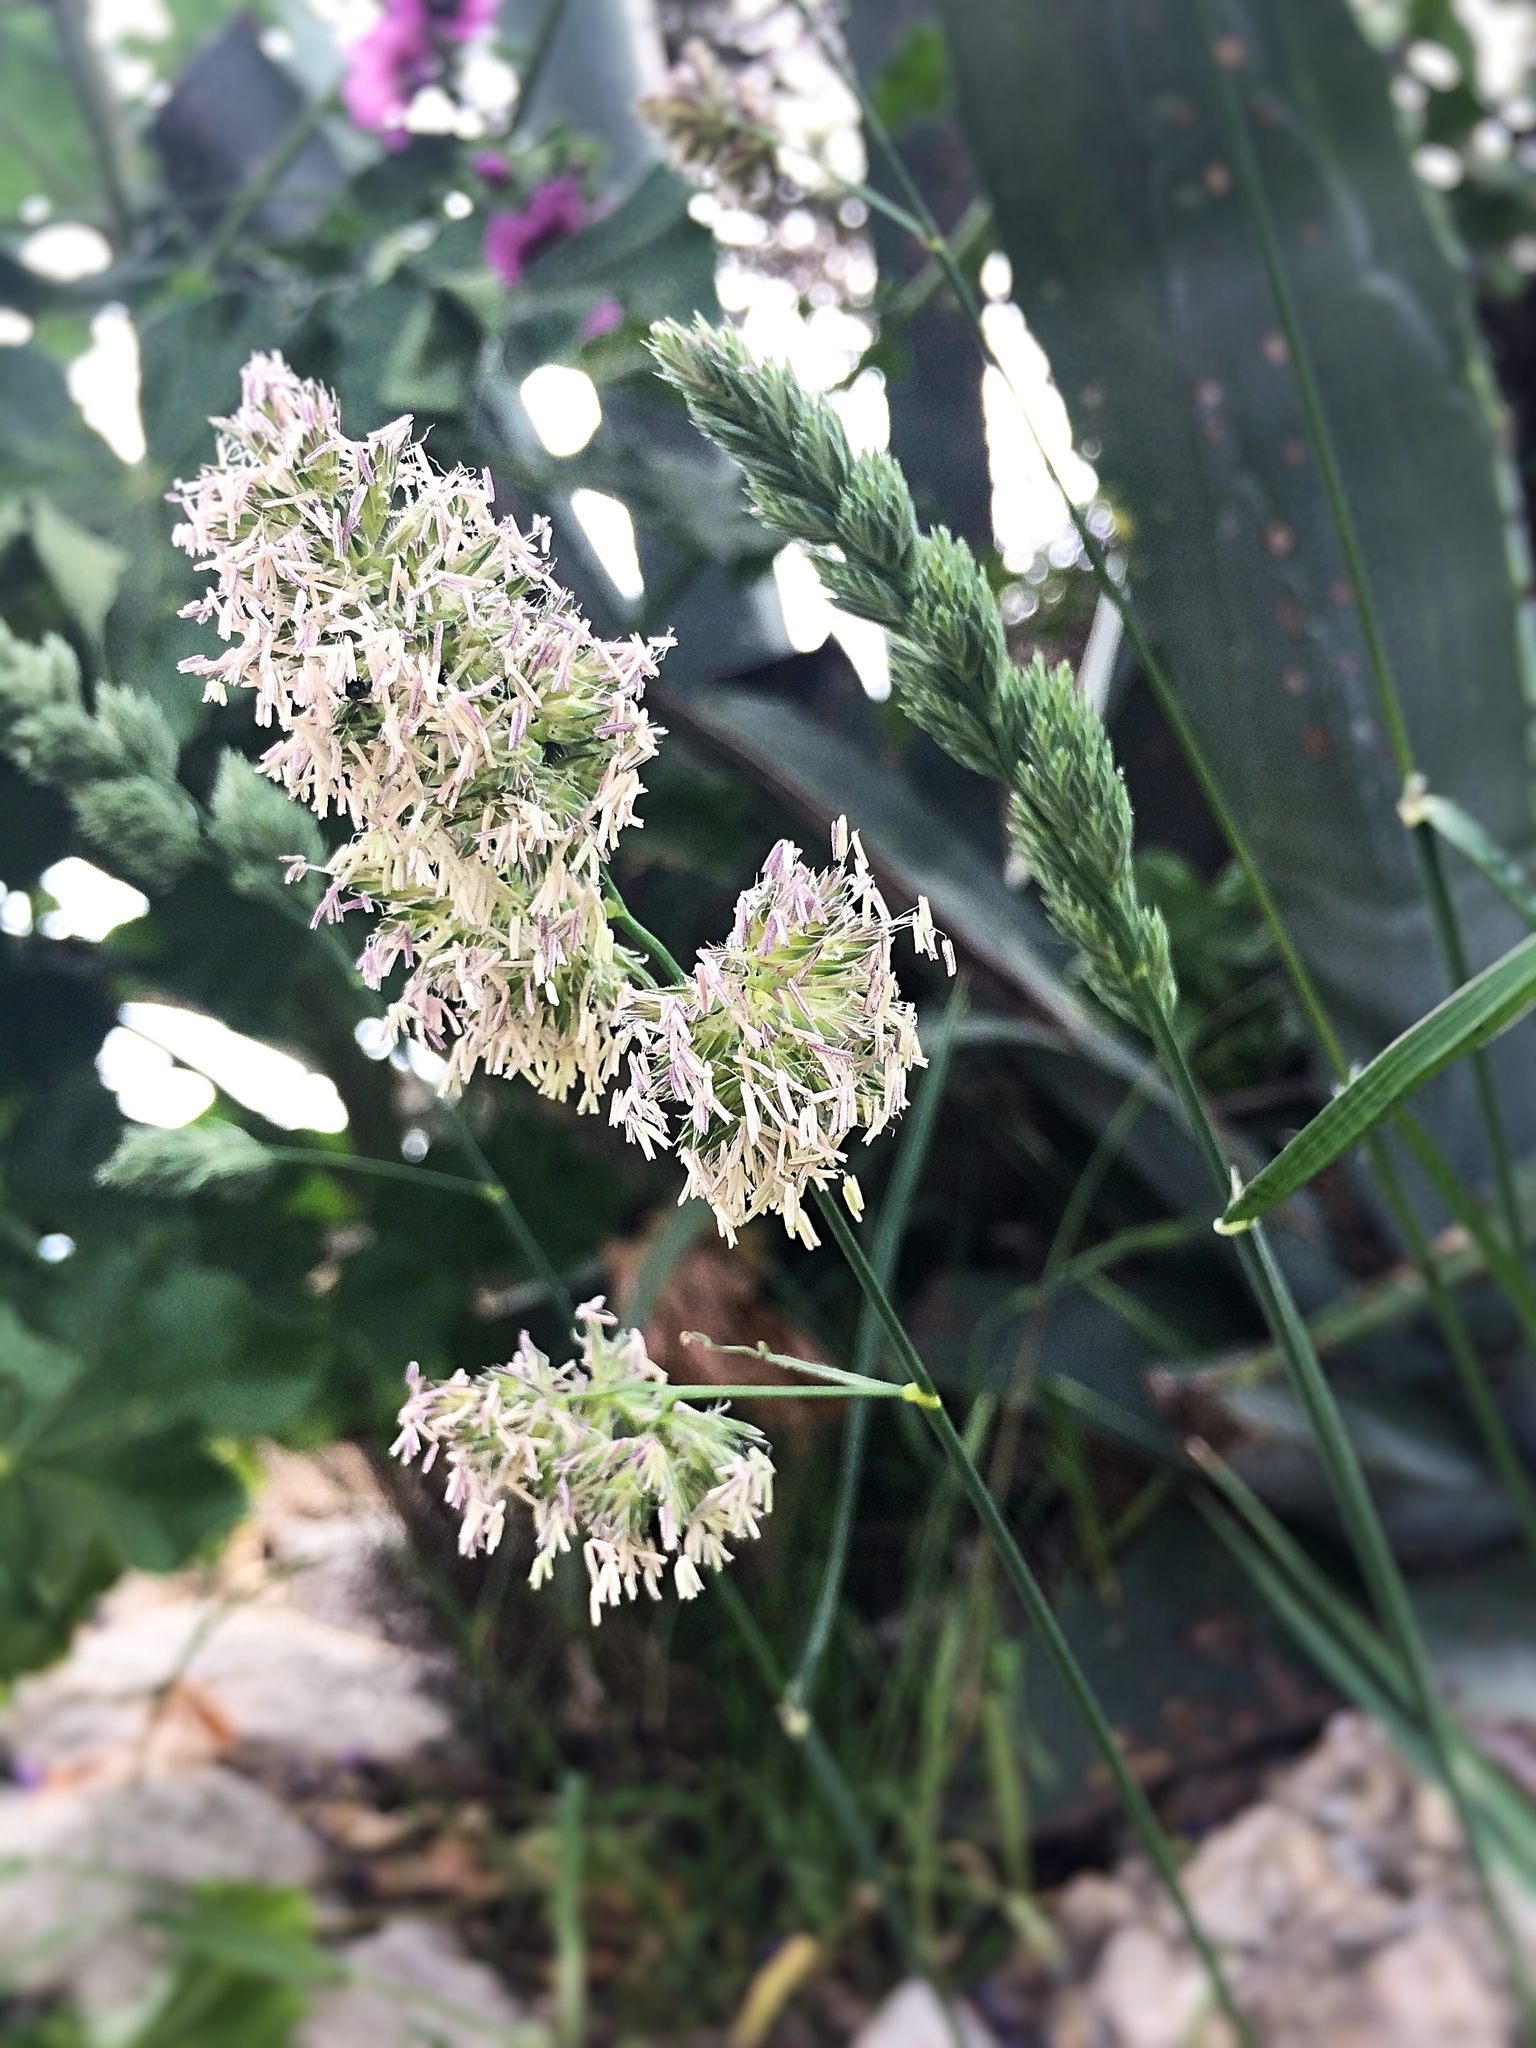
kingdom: Plantae
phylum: Tracheophyta
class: Liliopsida
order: Poales
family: Poaceae
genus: Dactylis
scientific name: Dactylis glomerata
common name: Orchardgrass
